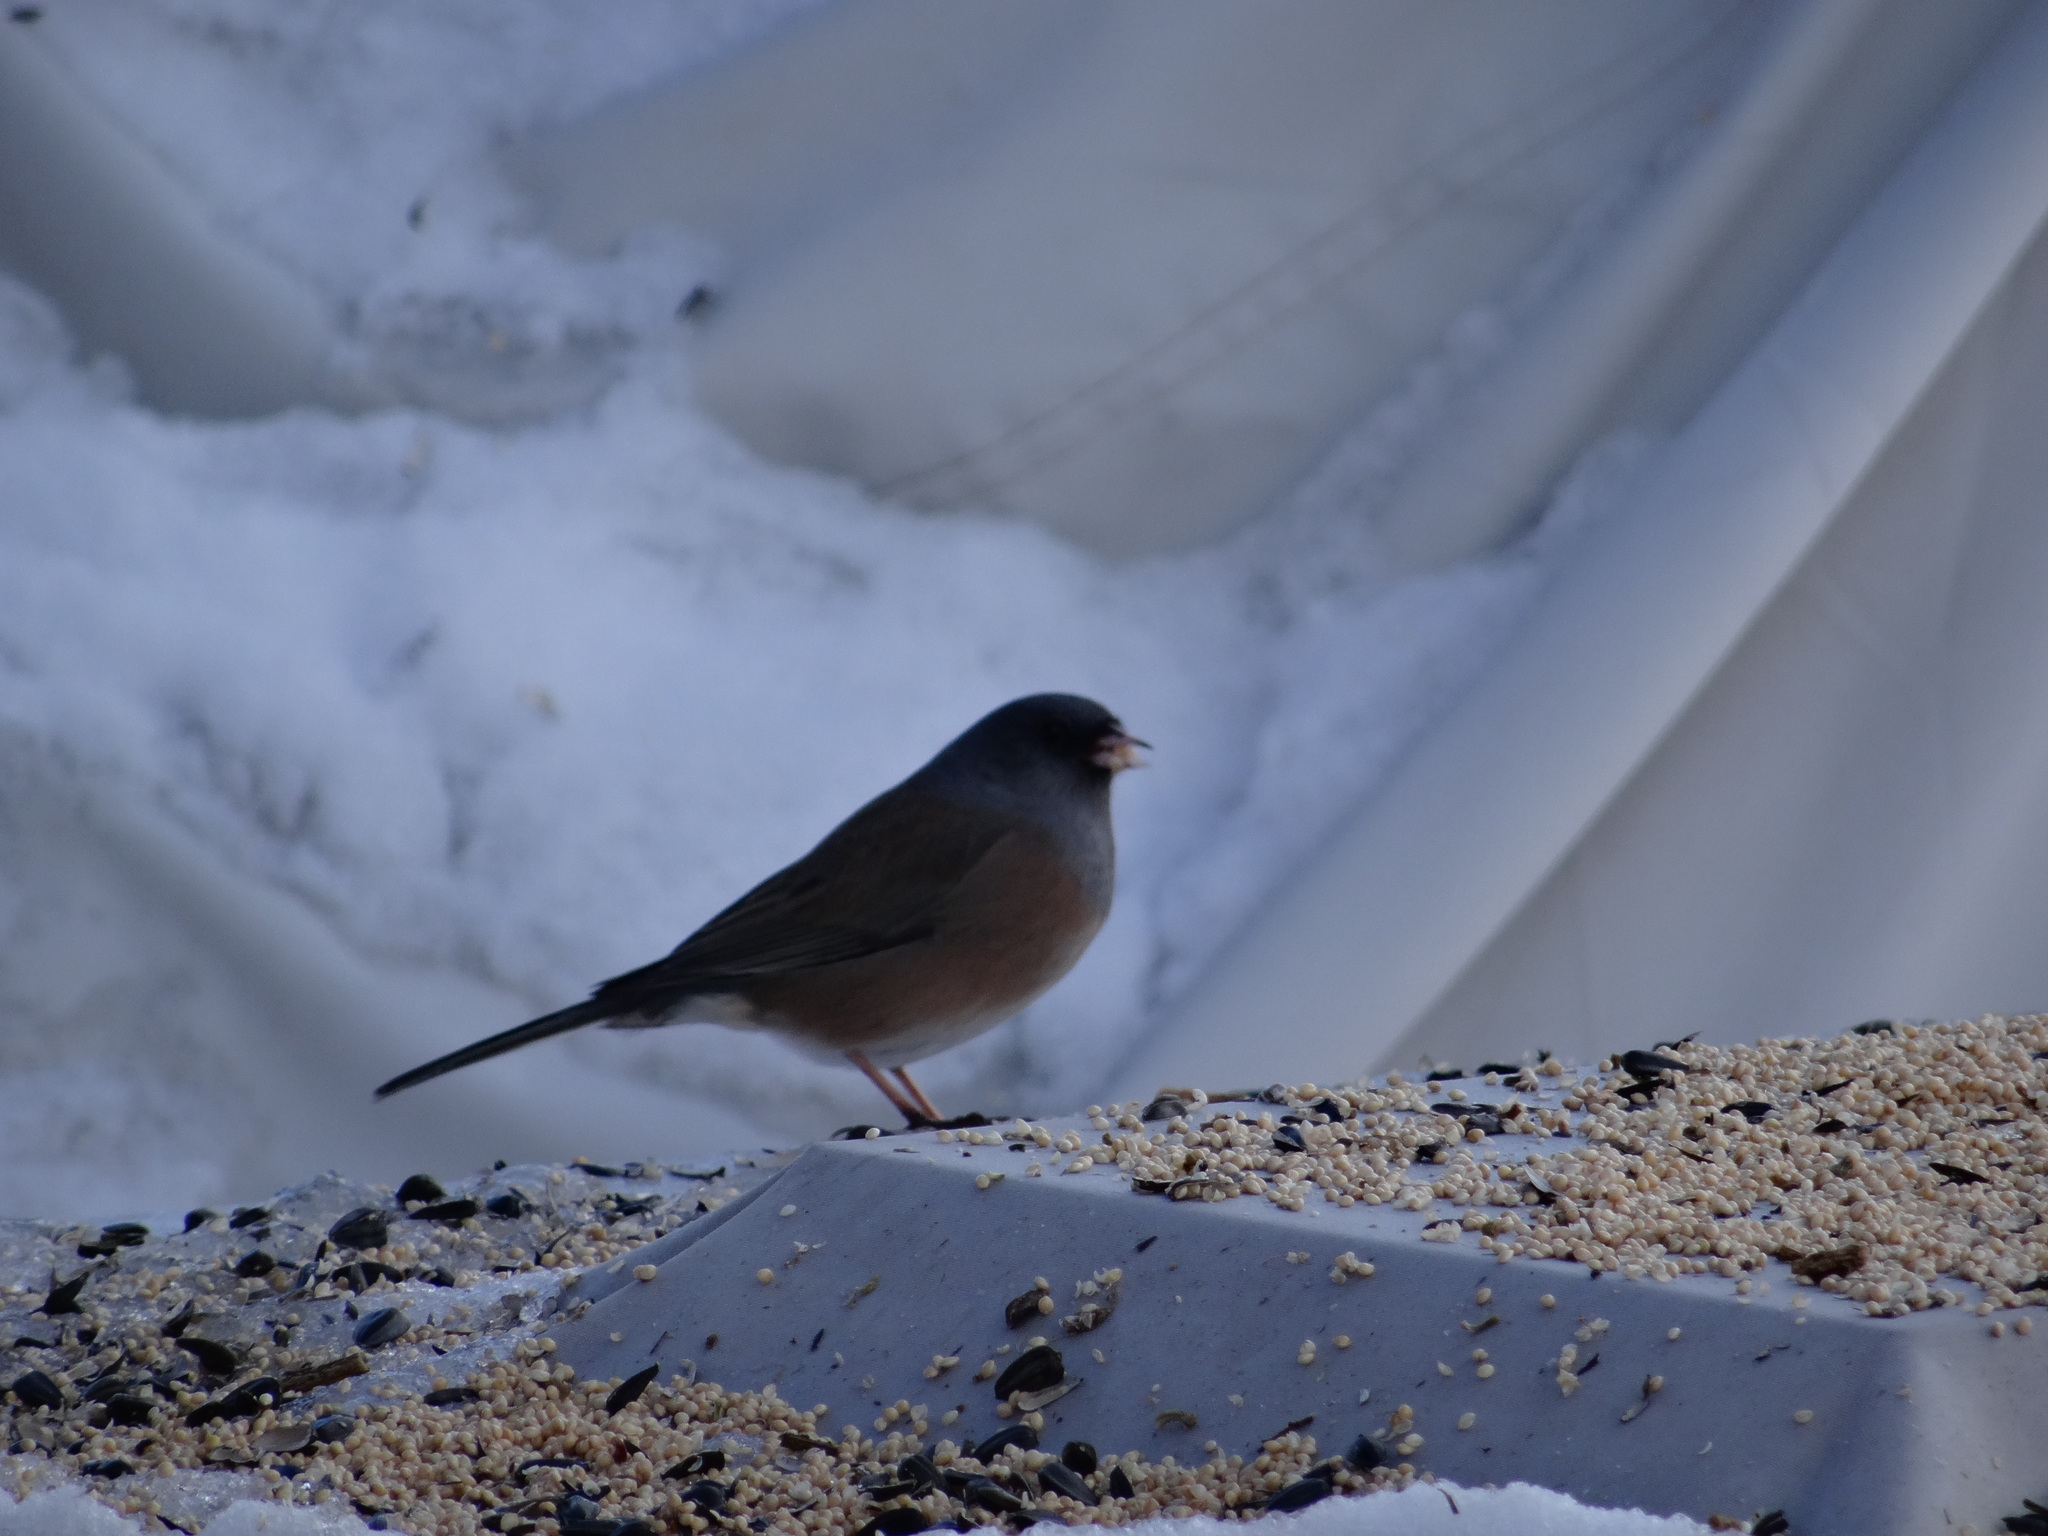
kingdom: Animalia
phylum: Chordata
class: Aves
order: Passeriformes
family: Passerellidae
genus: Junco
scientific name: Junco hyemalis
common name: Dark-eyed junco
